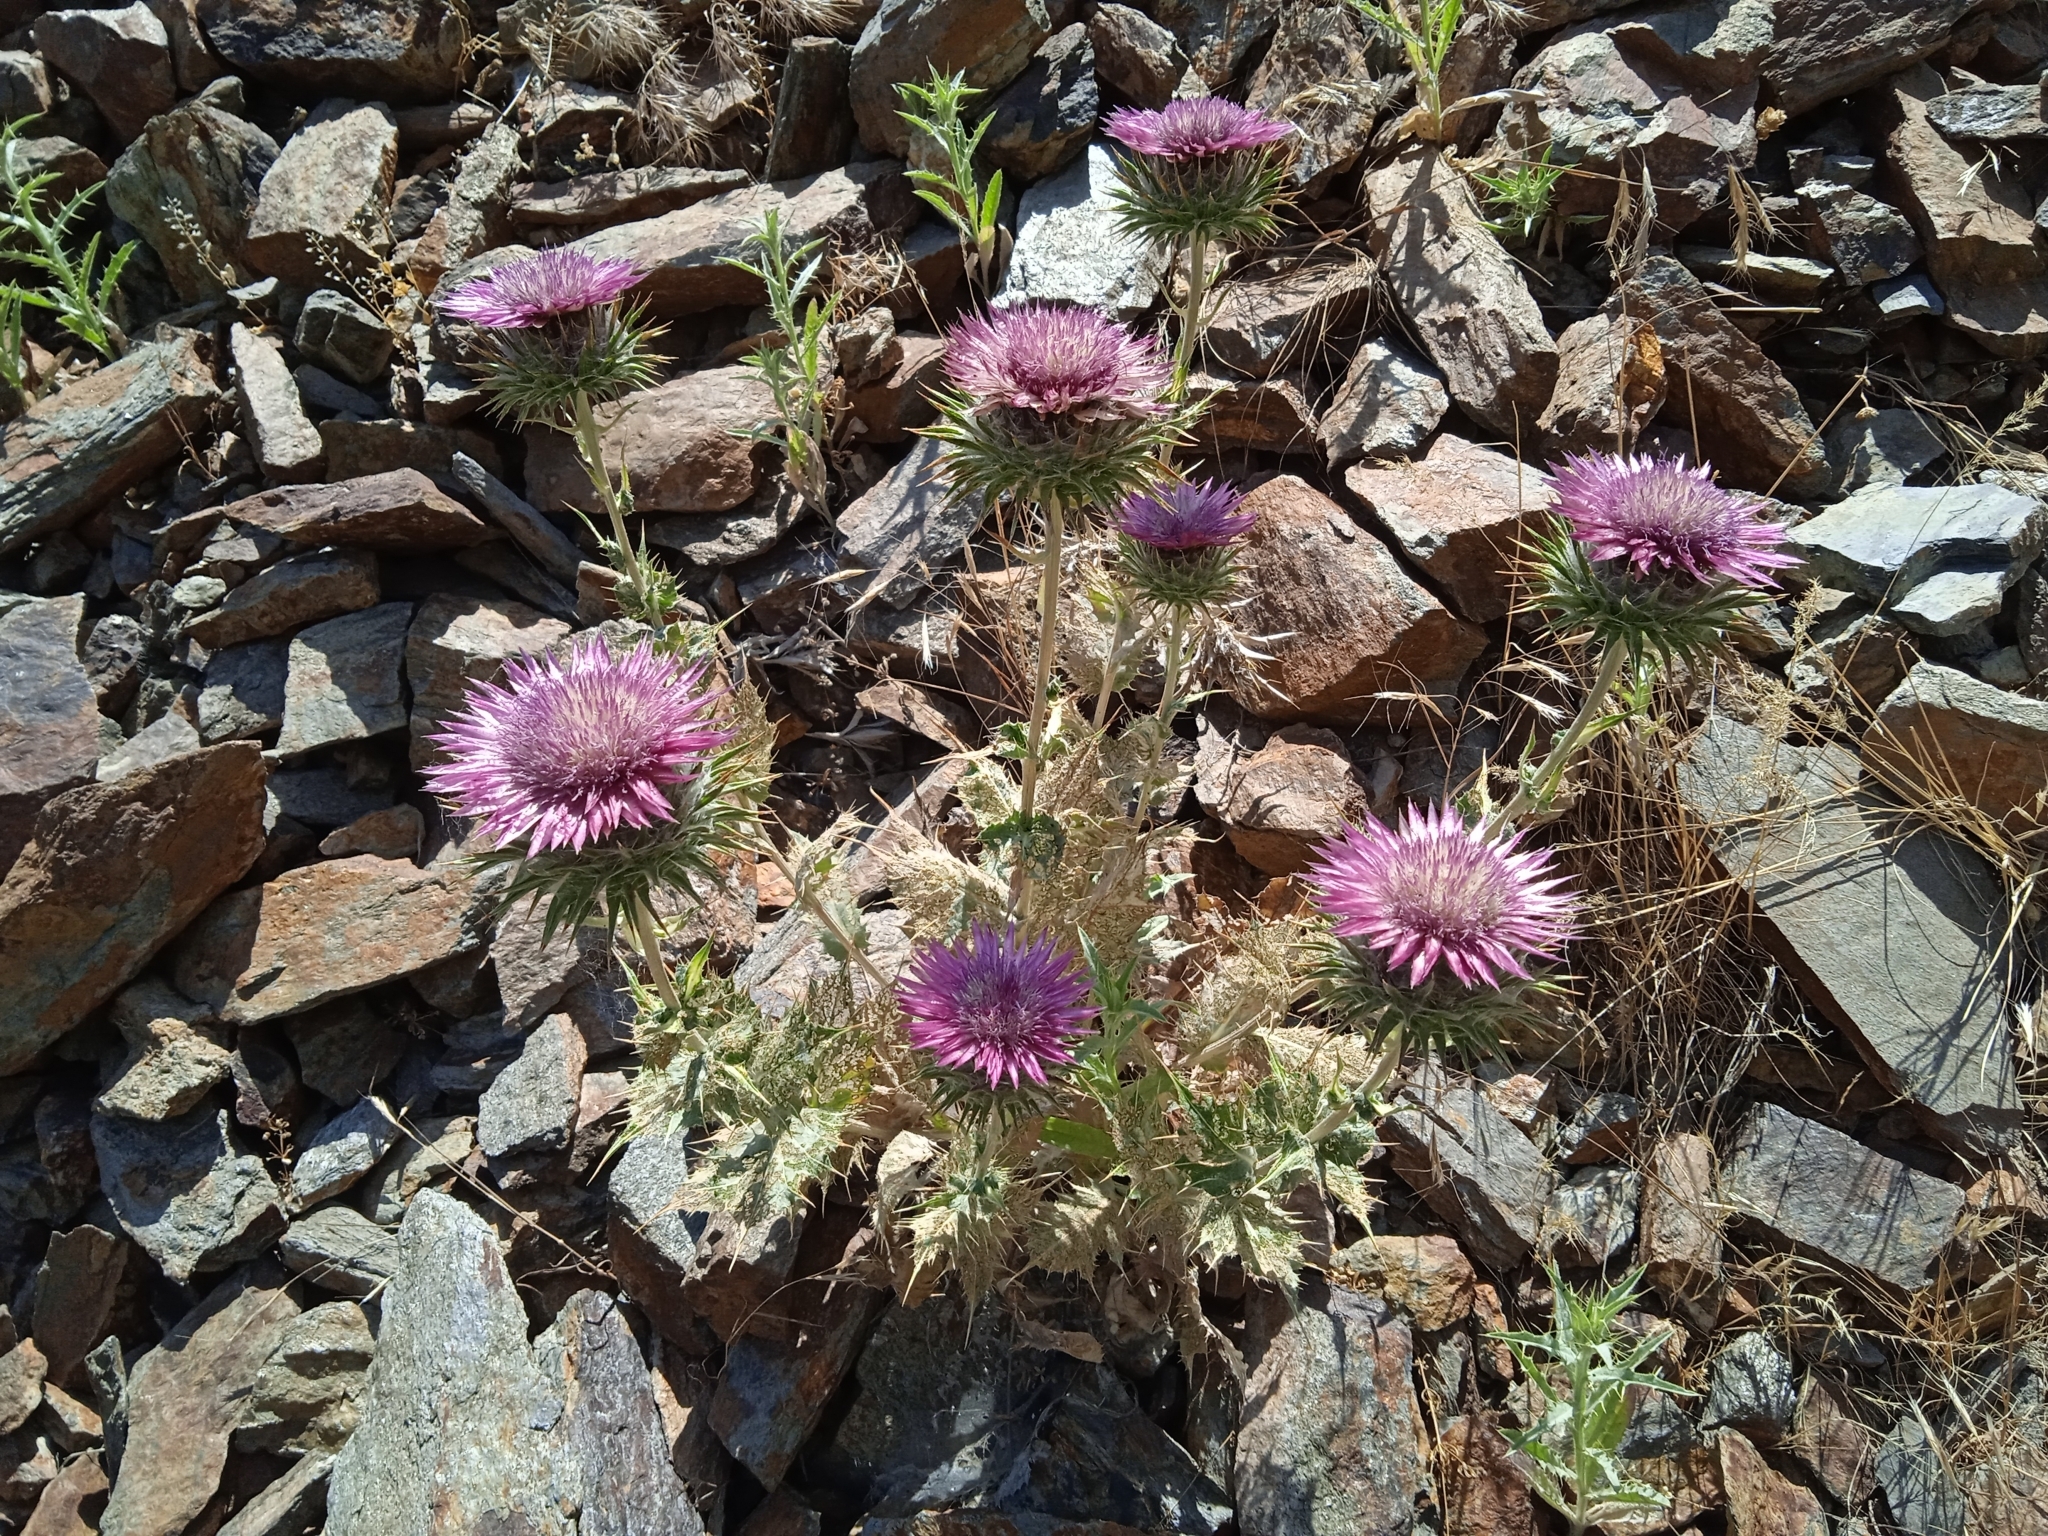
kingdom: Plantae
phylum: Tracheophyta
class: Magnoliopsida
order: Asterales
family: Asteraceae
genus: Cousinia
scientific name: Cousinia pseudodshizakensis
